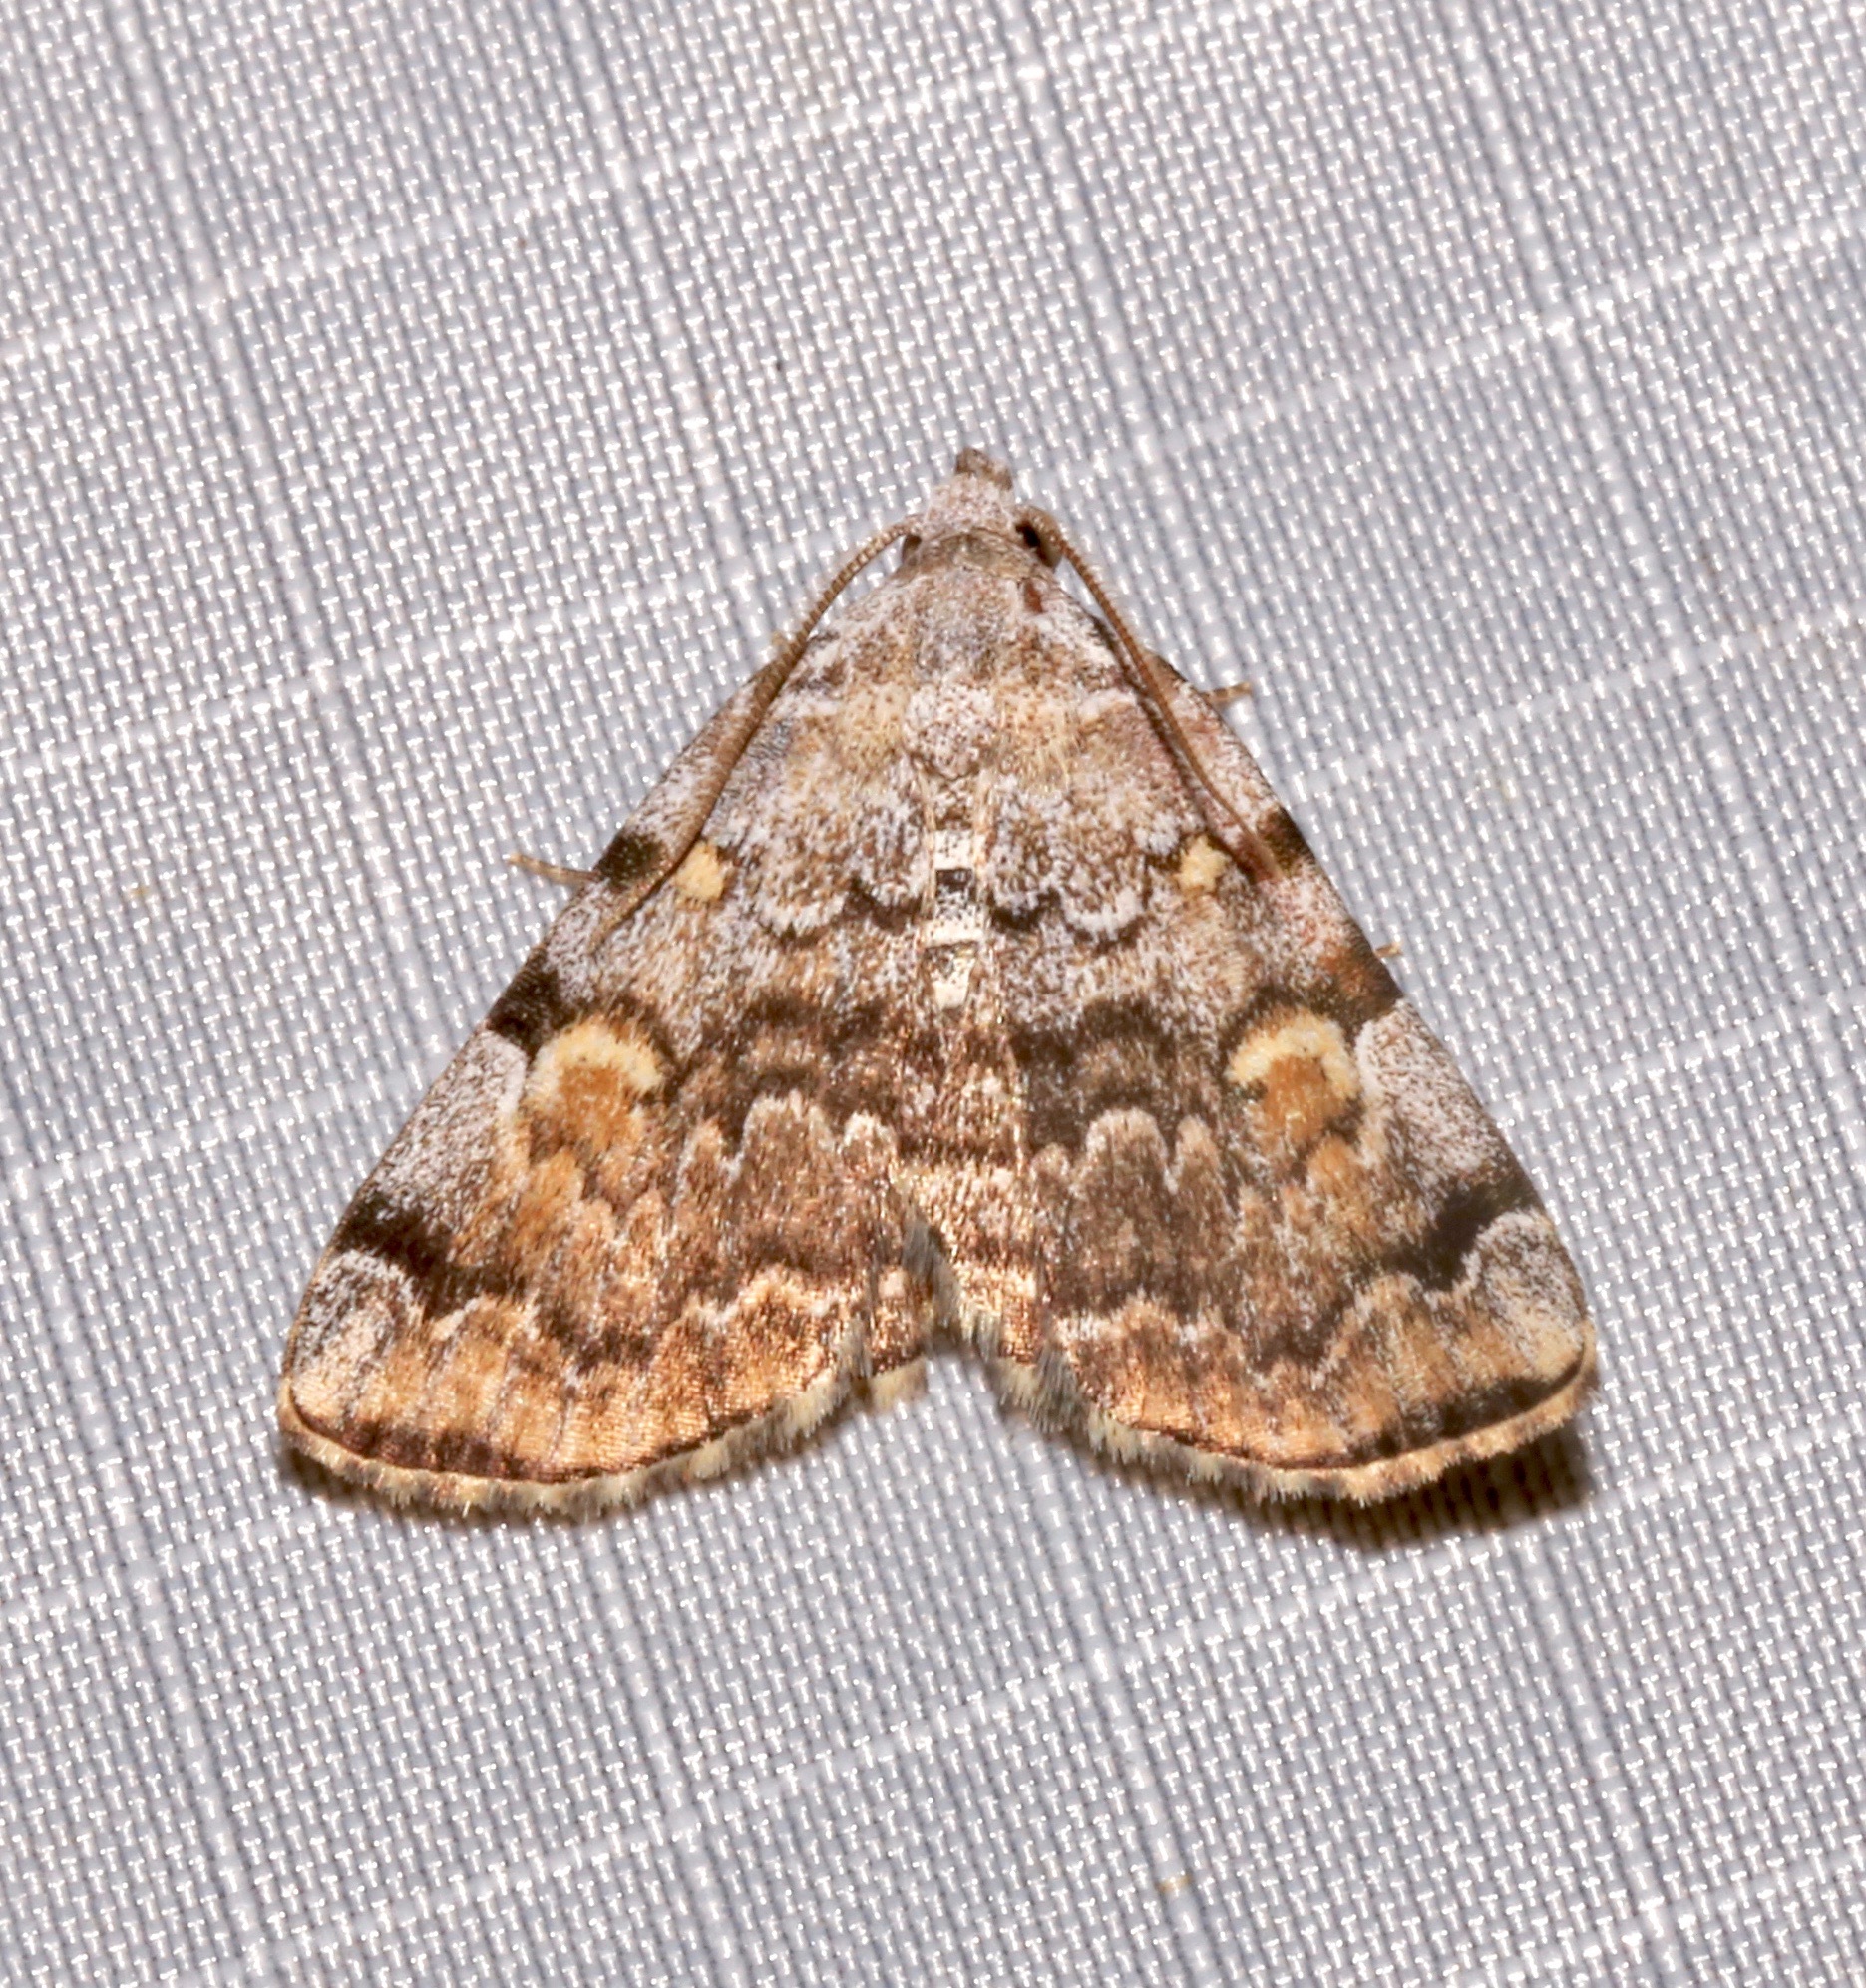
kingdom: Animalia
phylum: Arthropoda
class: Insecta
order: Lepidoptera
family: Erebidae
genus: Idia
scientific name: Idia americalis
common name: American idia moth
